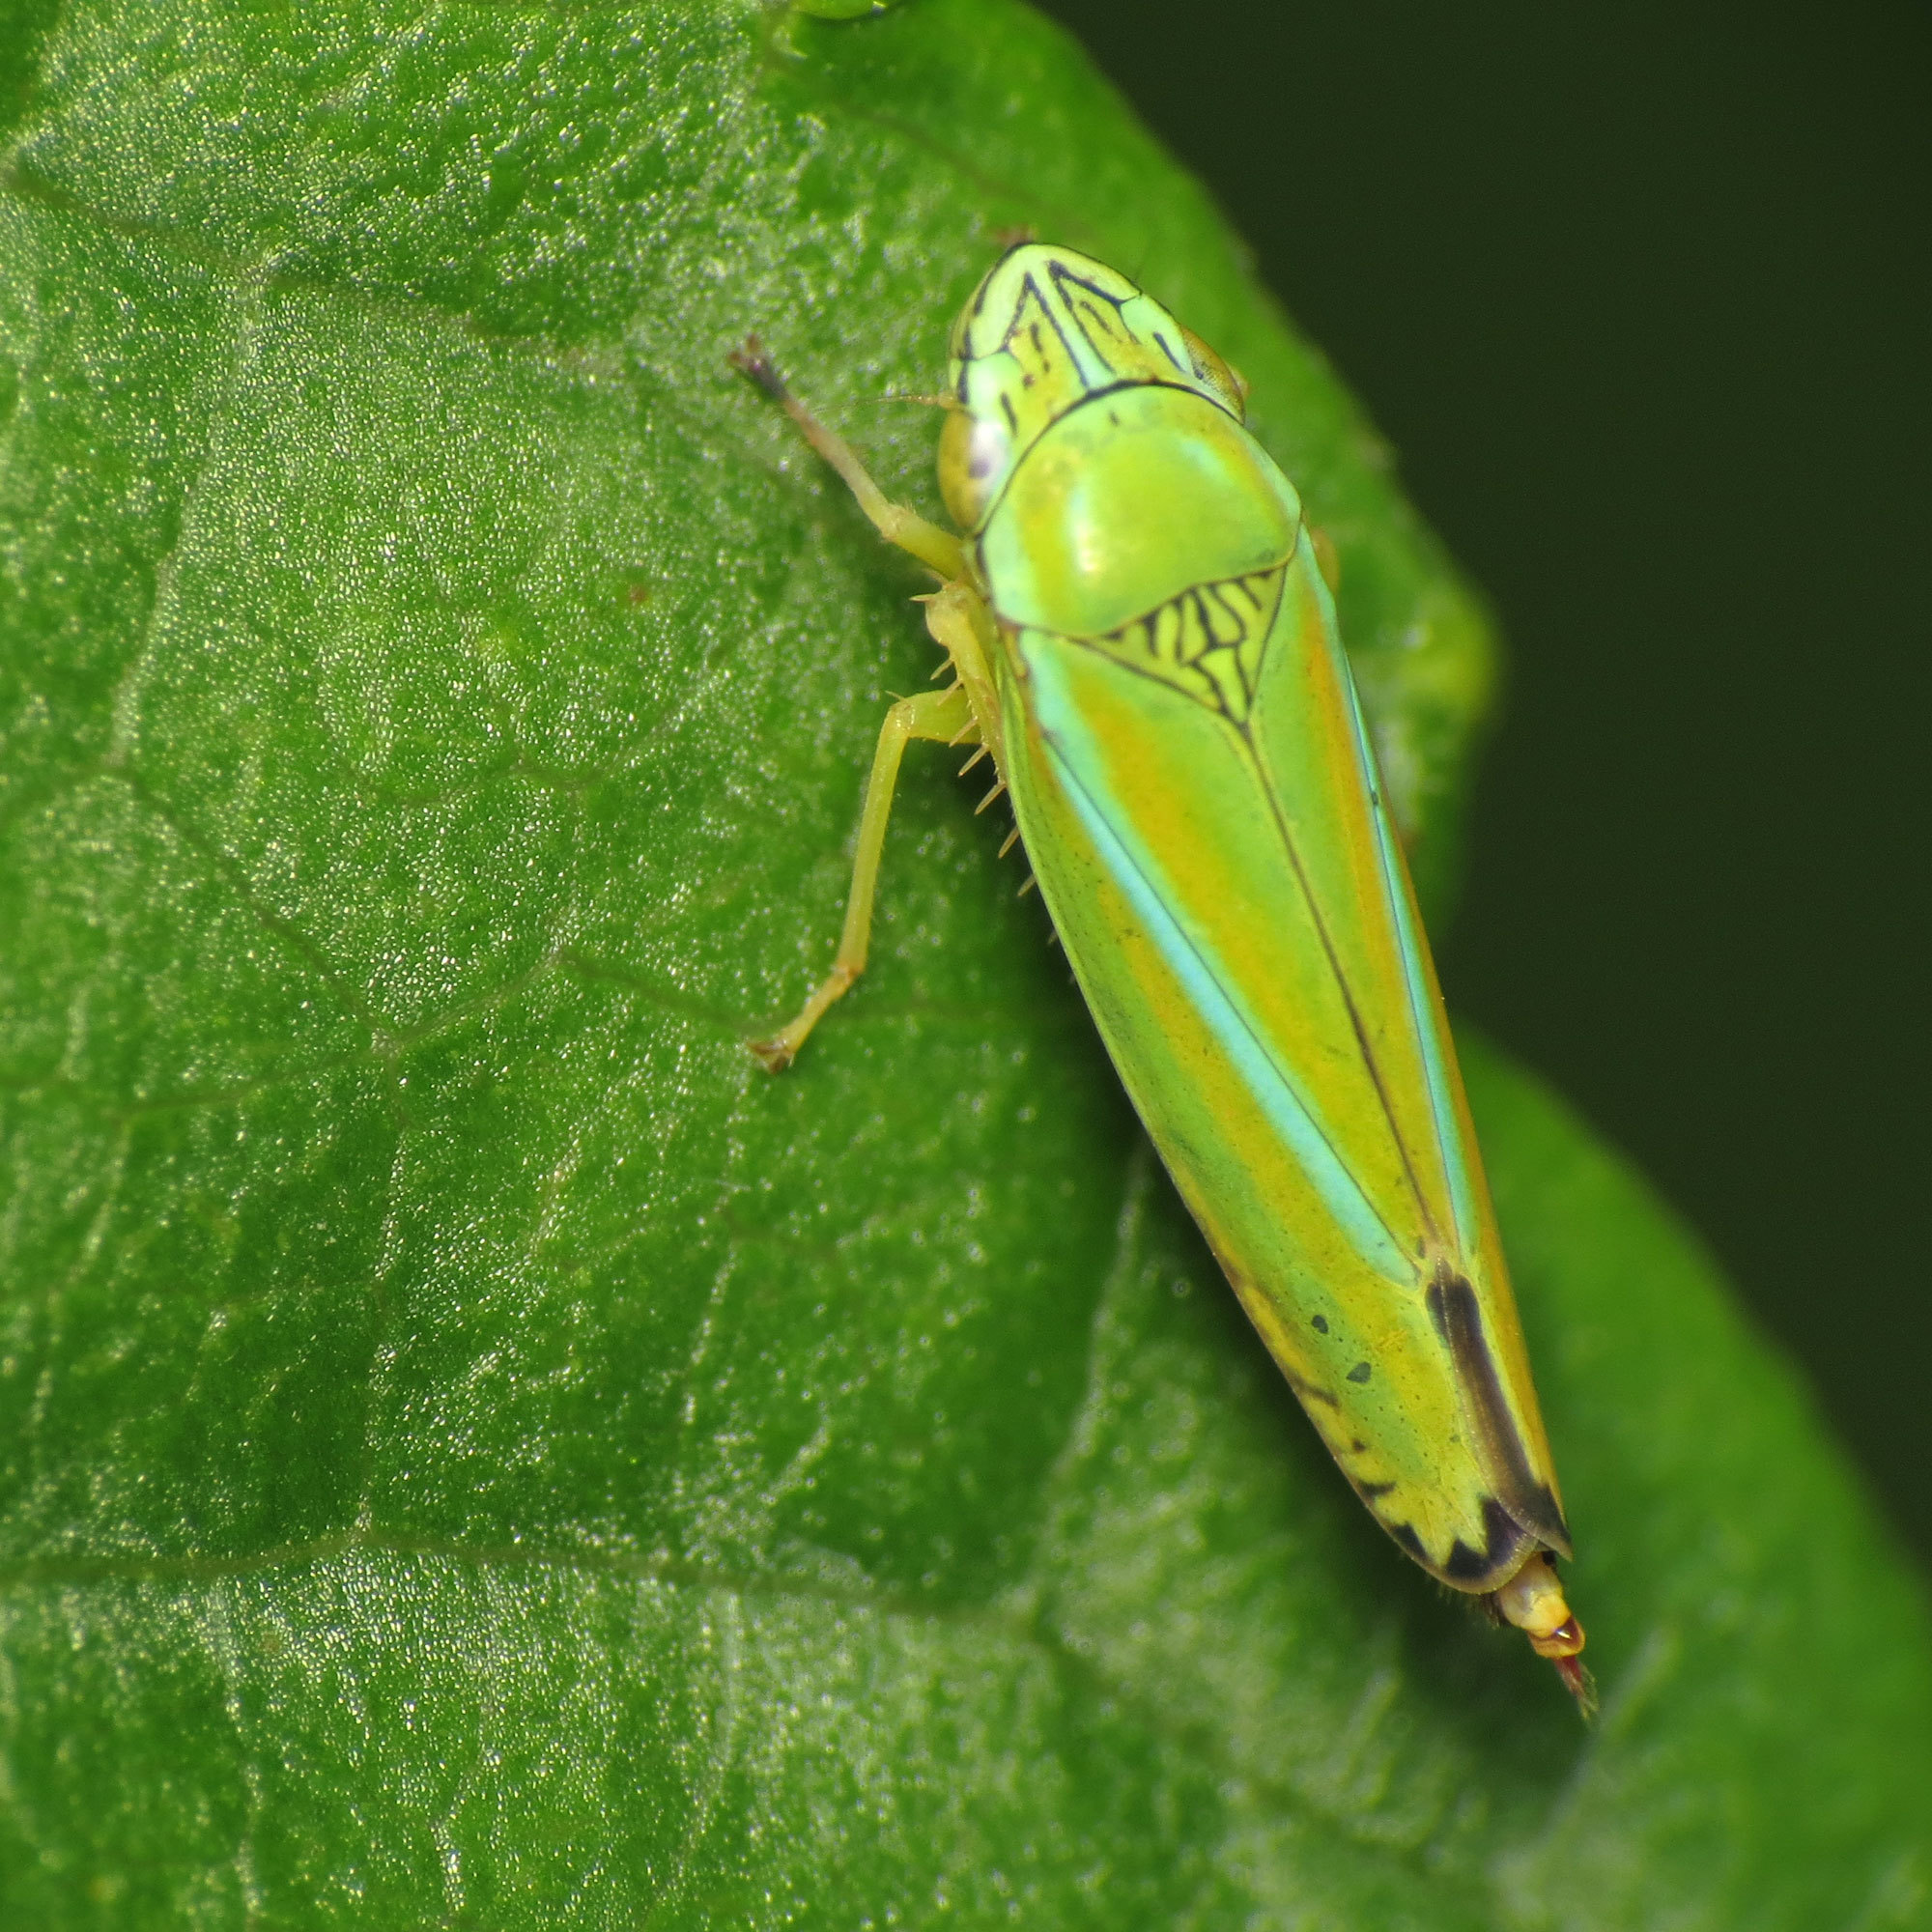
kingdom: Animalia
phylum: Arthropoda
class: Insecta
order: Hemiptera
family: Cicadellidae
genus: Graphocephala
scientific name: Graphocephala versuta
